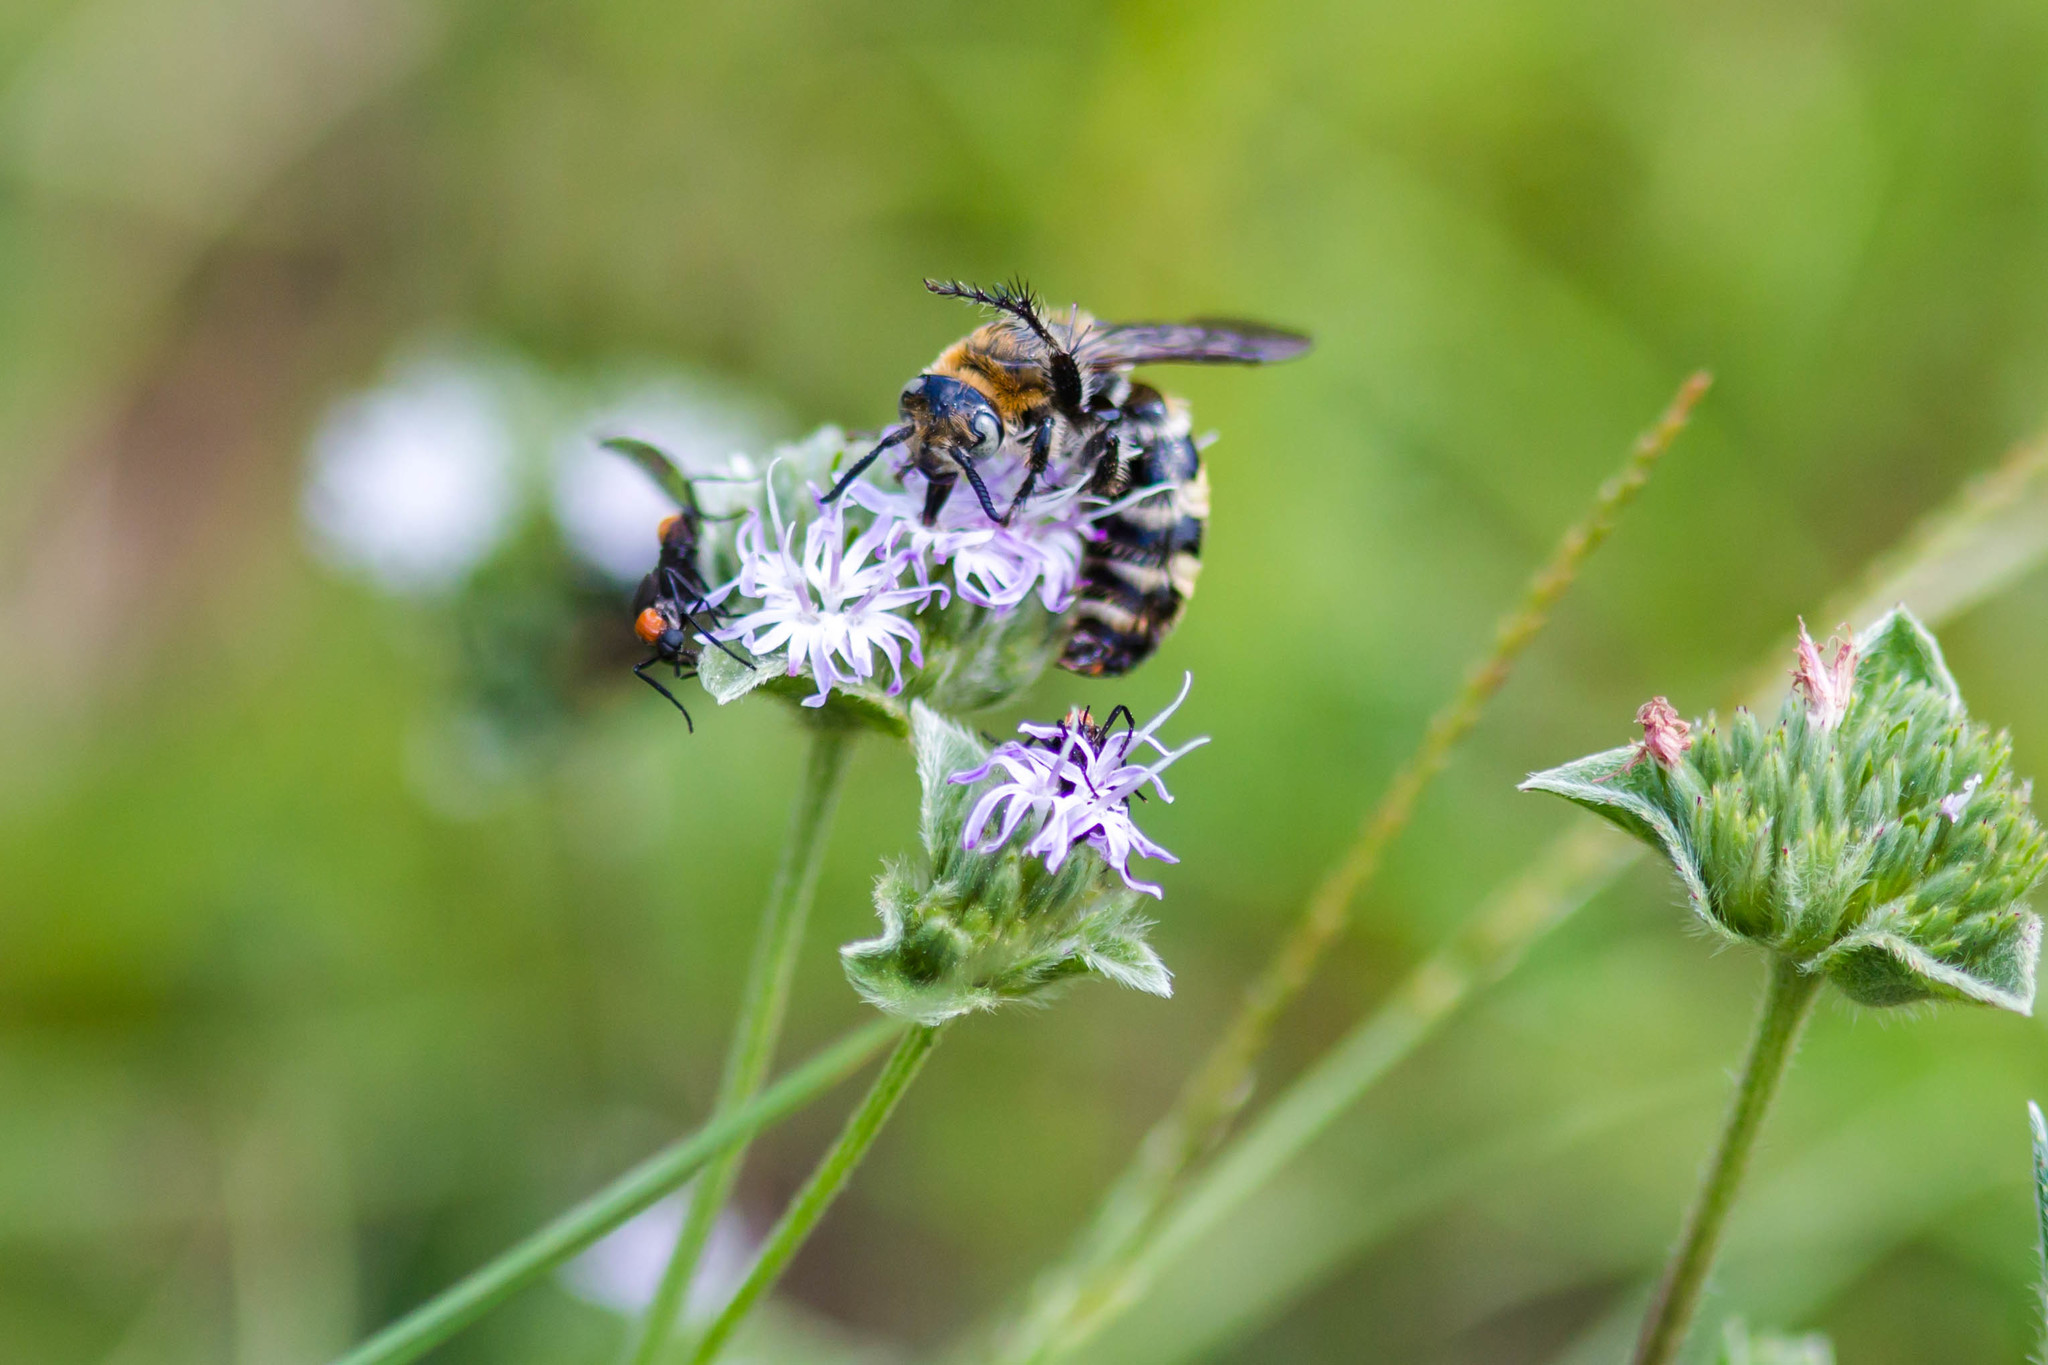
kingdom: Animalia
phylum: Arthropoda
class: Insecta
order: Hymenoptera
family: Scoliidae
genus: Dielis
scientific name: Dielis
